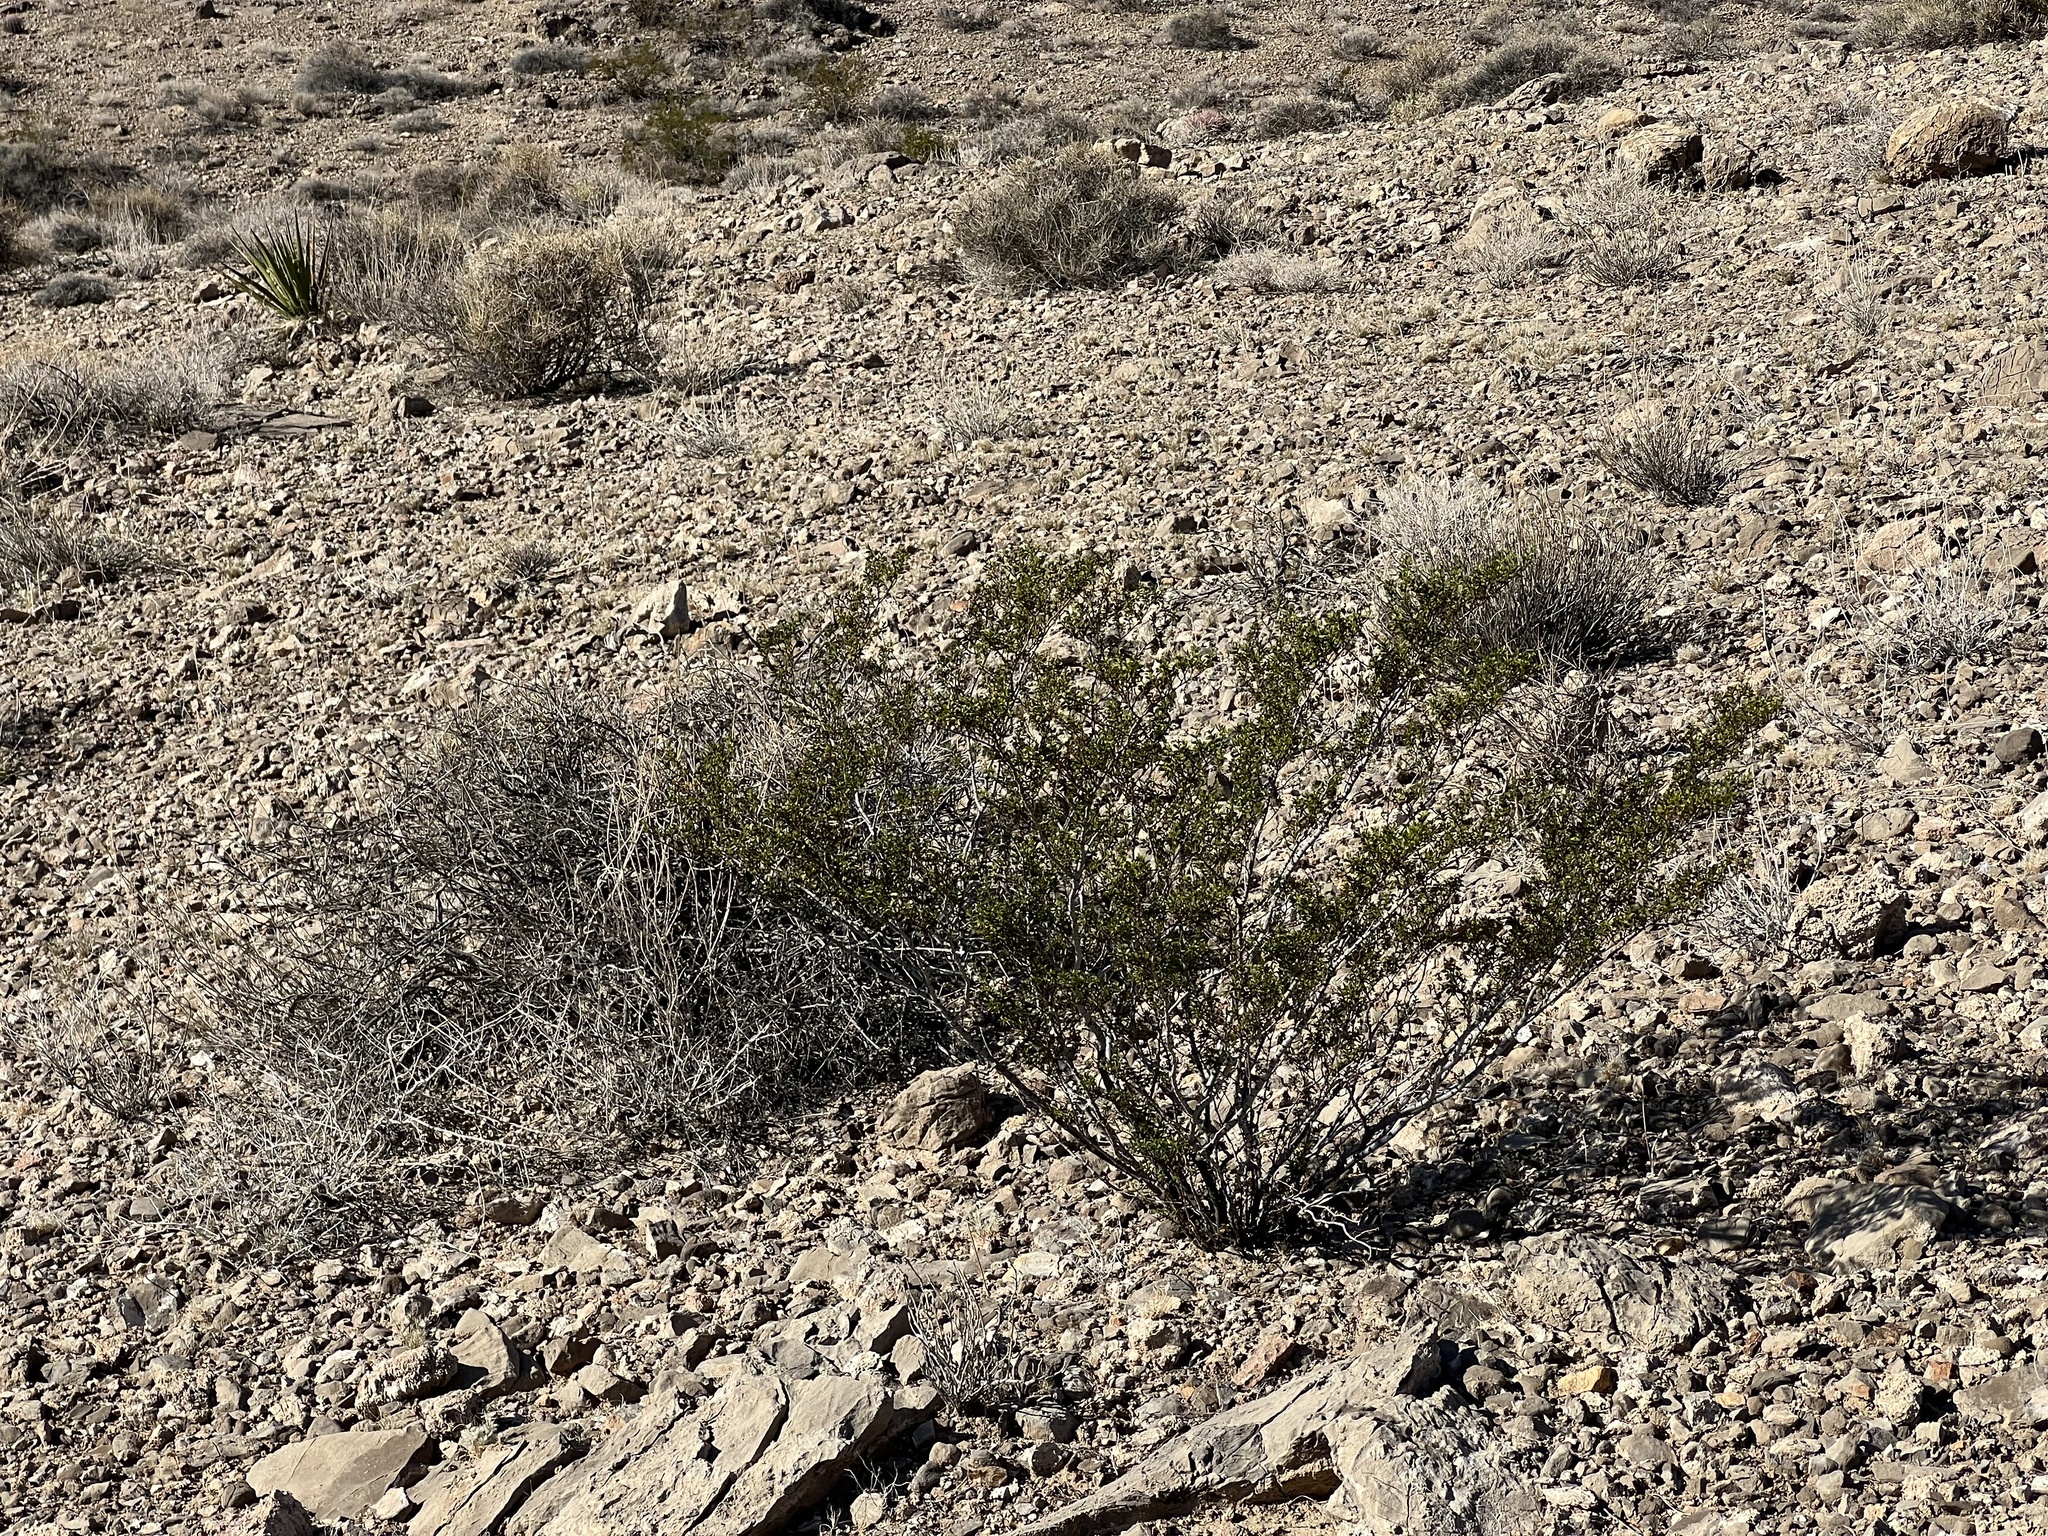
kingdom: Plantae
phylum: Tracheophyta
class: Magnoliopsida
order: Zygophyllales
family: Zygophyllaceae
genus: Larrea
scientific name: Larrea tridentata
